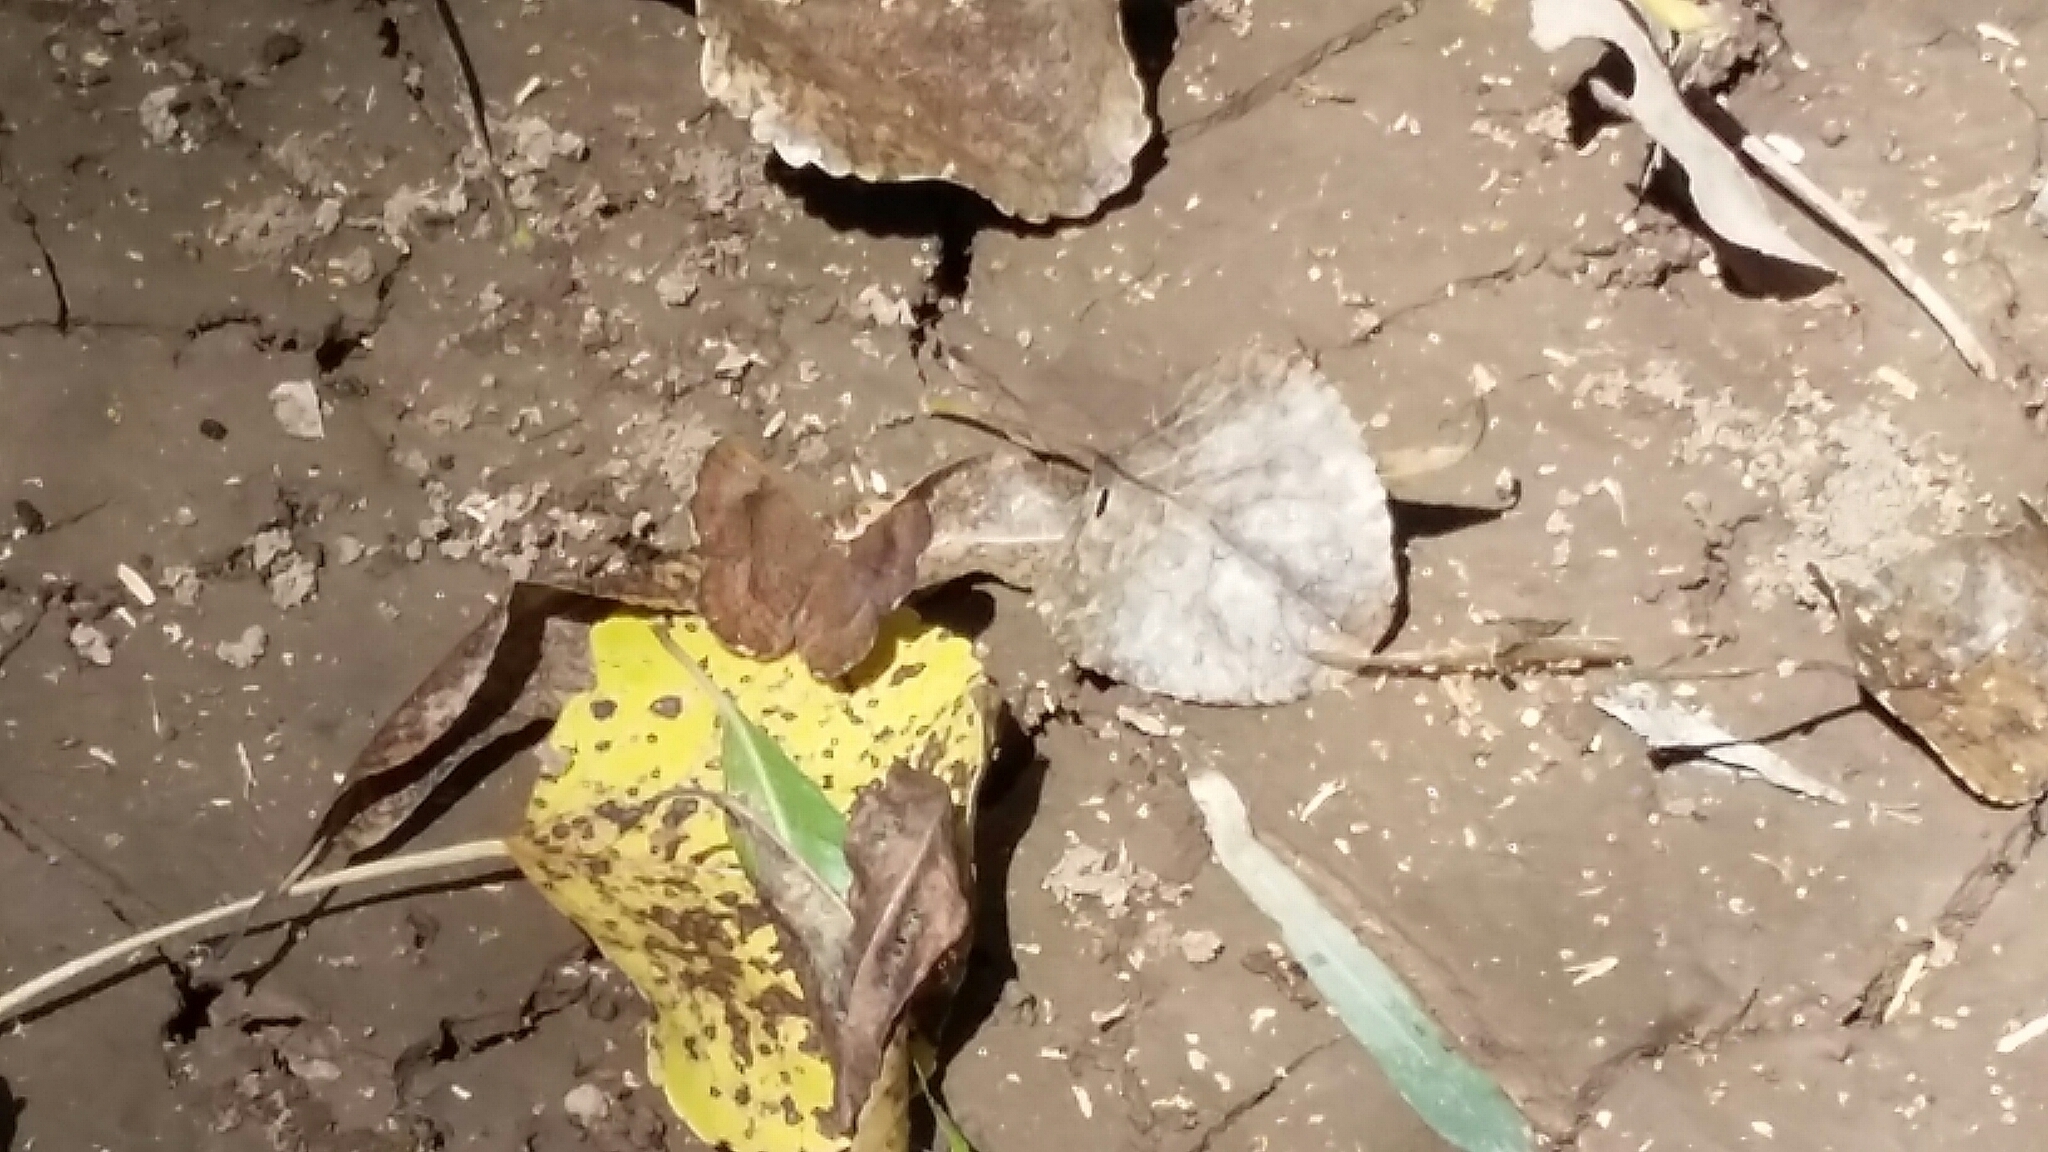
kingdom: Animalia
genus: Calephelis
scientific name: Calephelis nemesis
